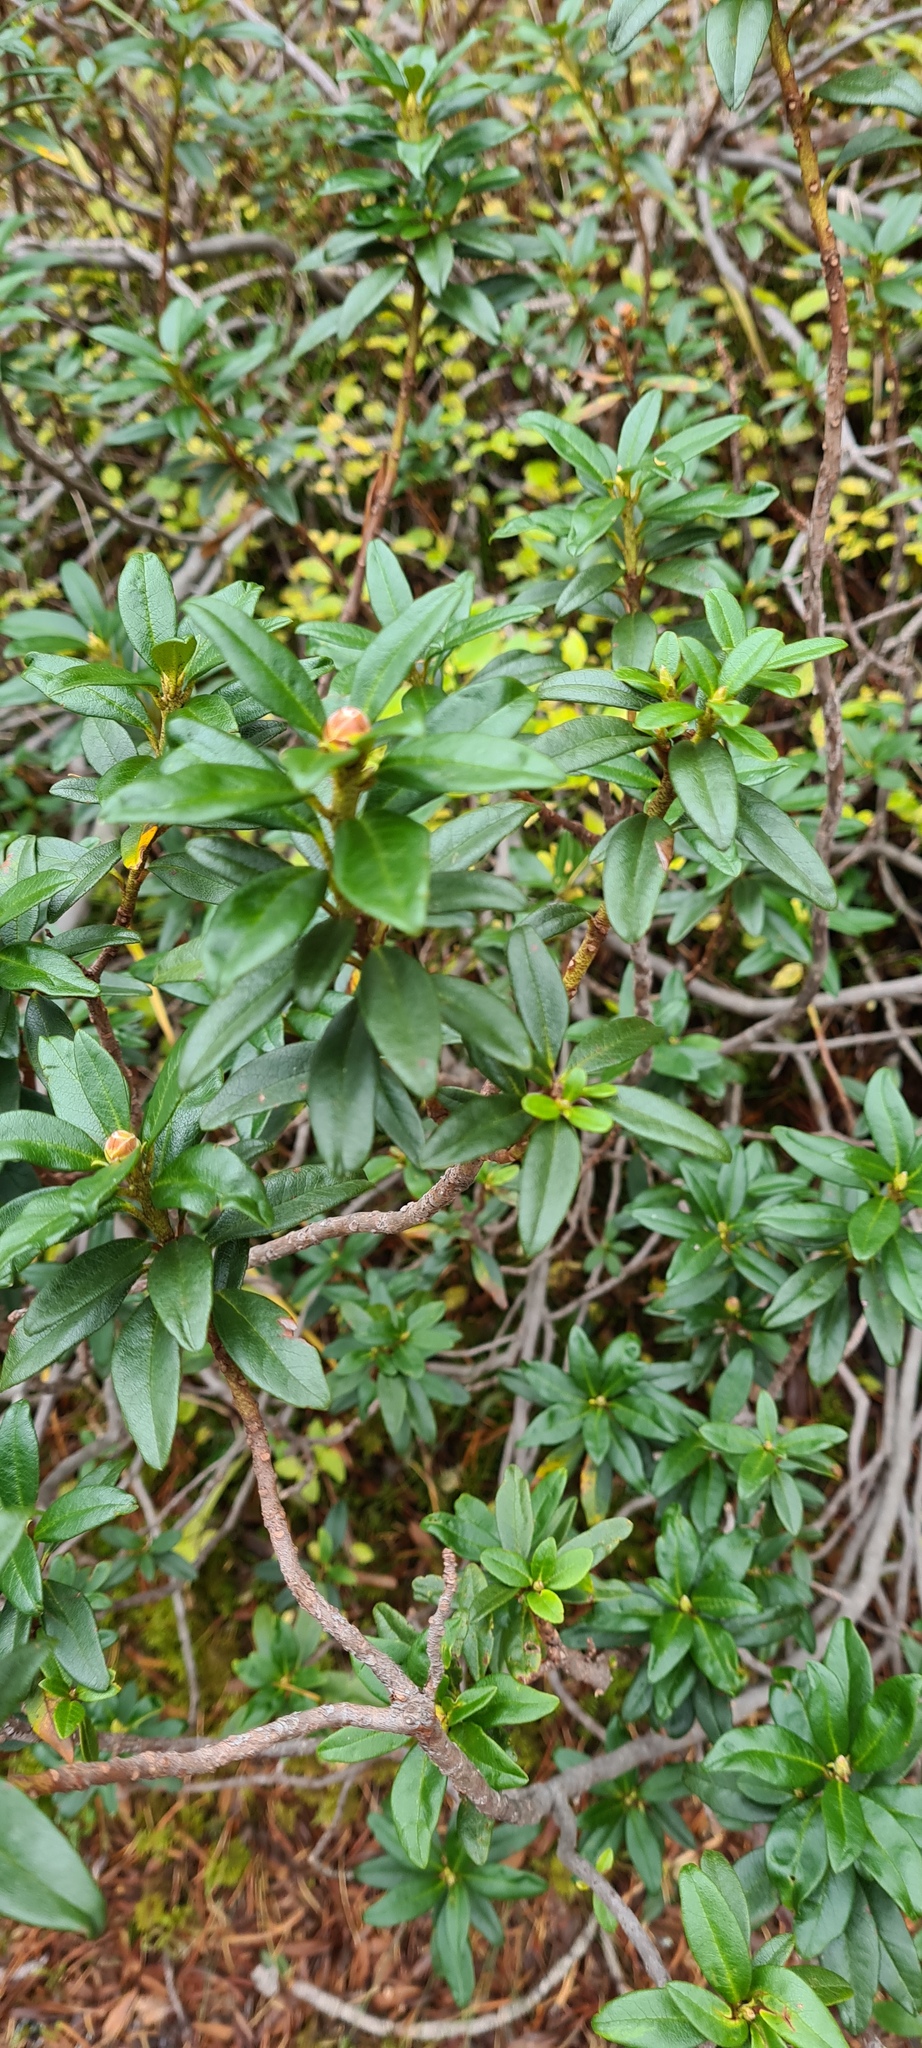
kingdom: Plantae
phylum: Tracheophyta
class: Magnoliopsida
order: Ericales
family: Ericaceae
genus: Rhododendron
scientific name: Rhododendron ferrugineum
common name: Alpenrose
